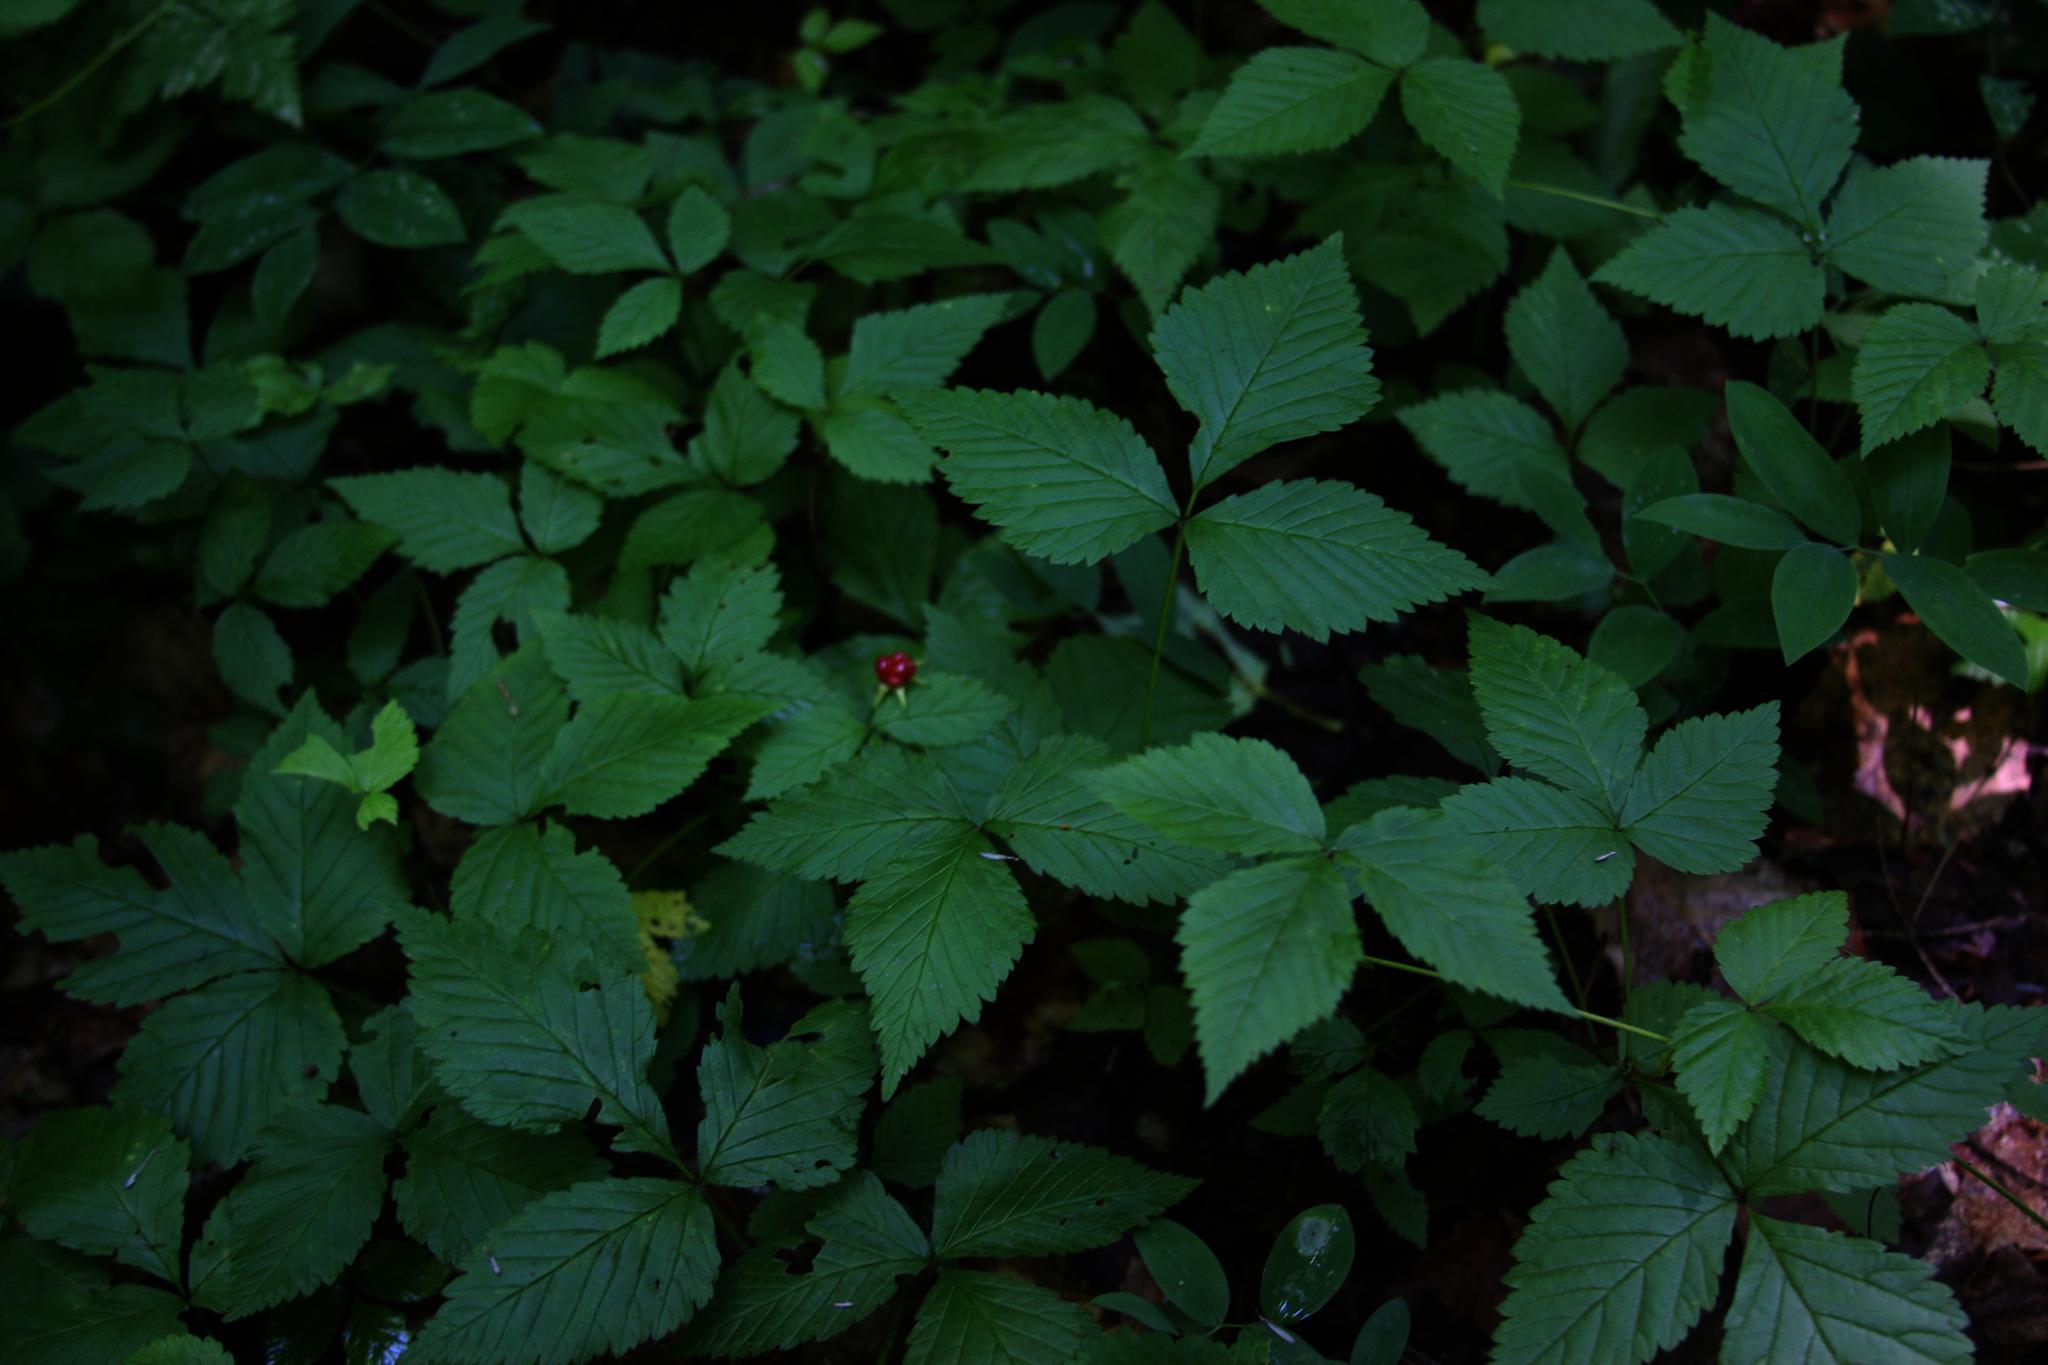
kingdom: Plantae
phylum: Tracheophyta
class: Magnoliopsida
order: Rosales
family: Rosaceae
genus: Rubus
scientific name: Rubus pubescens
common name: Dwarf raspberry
